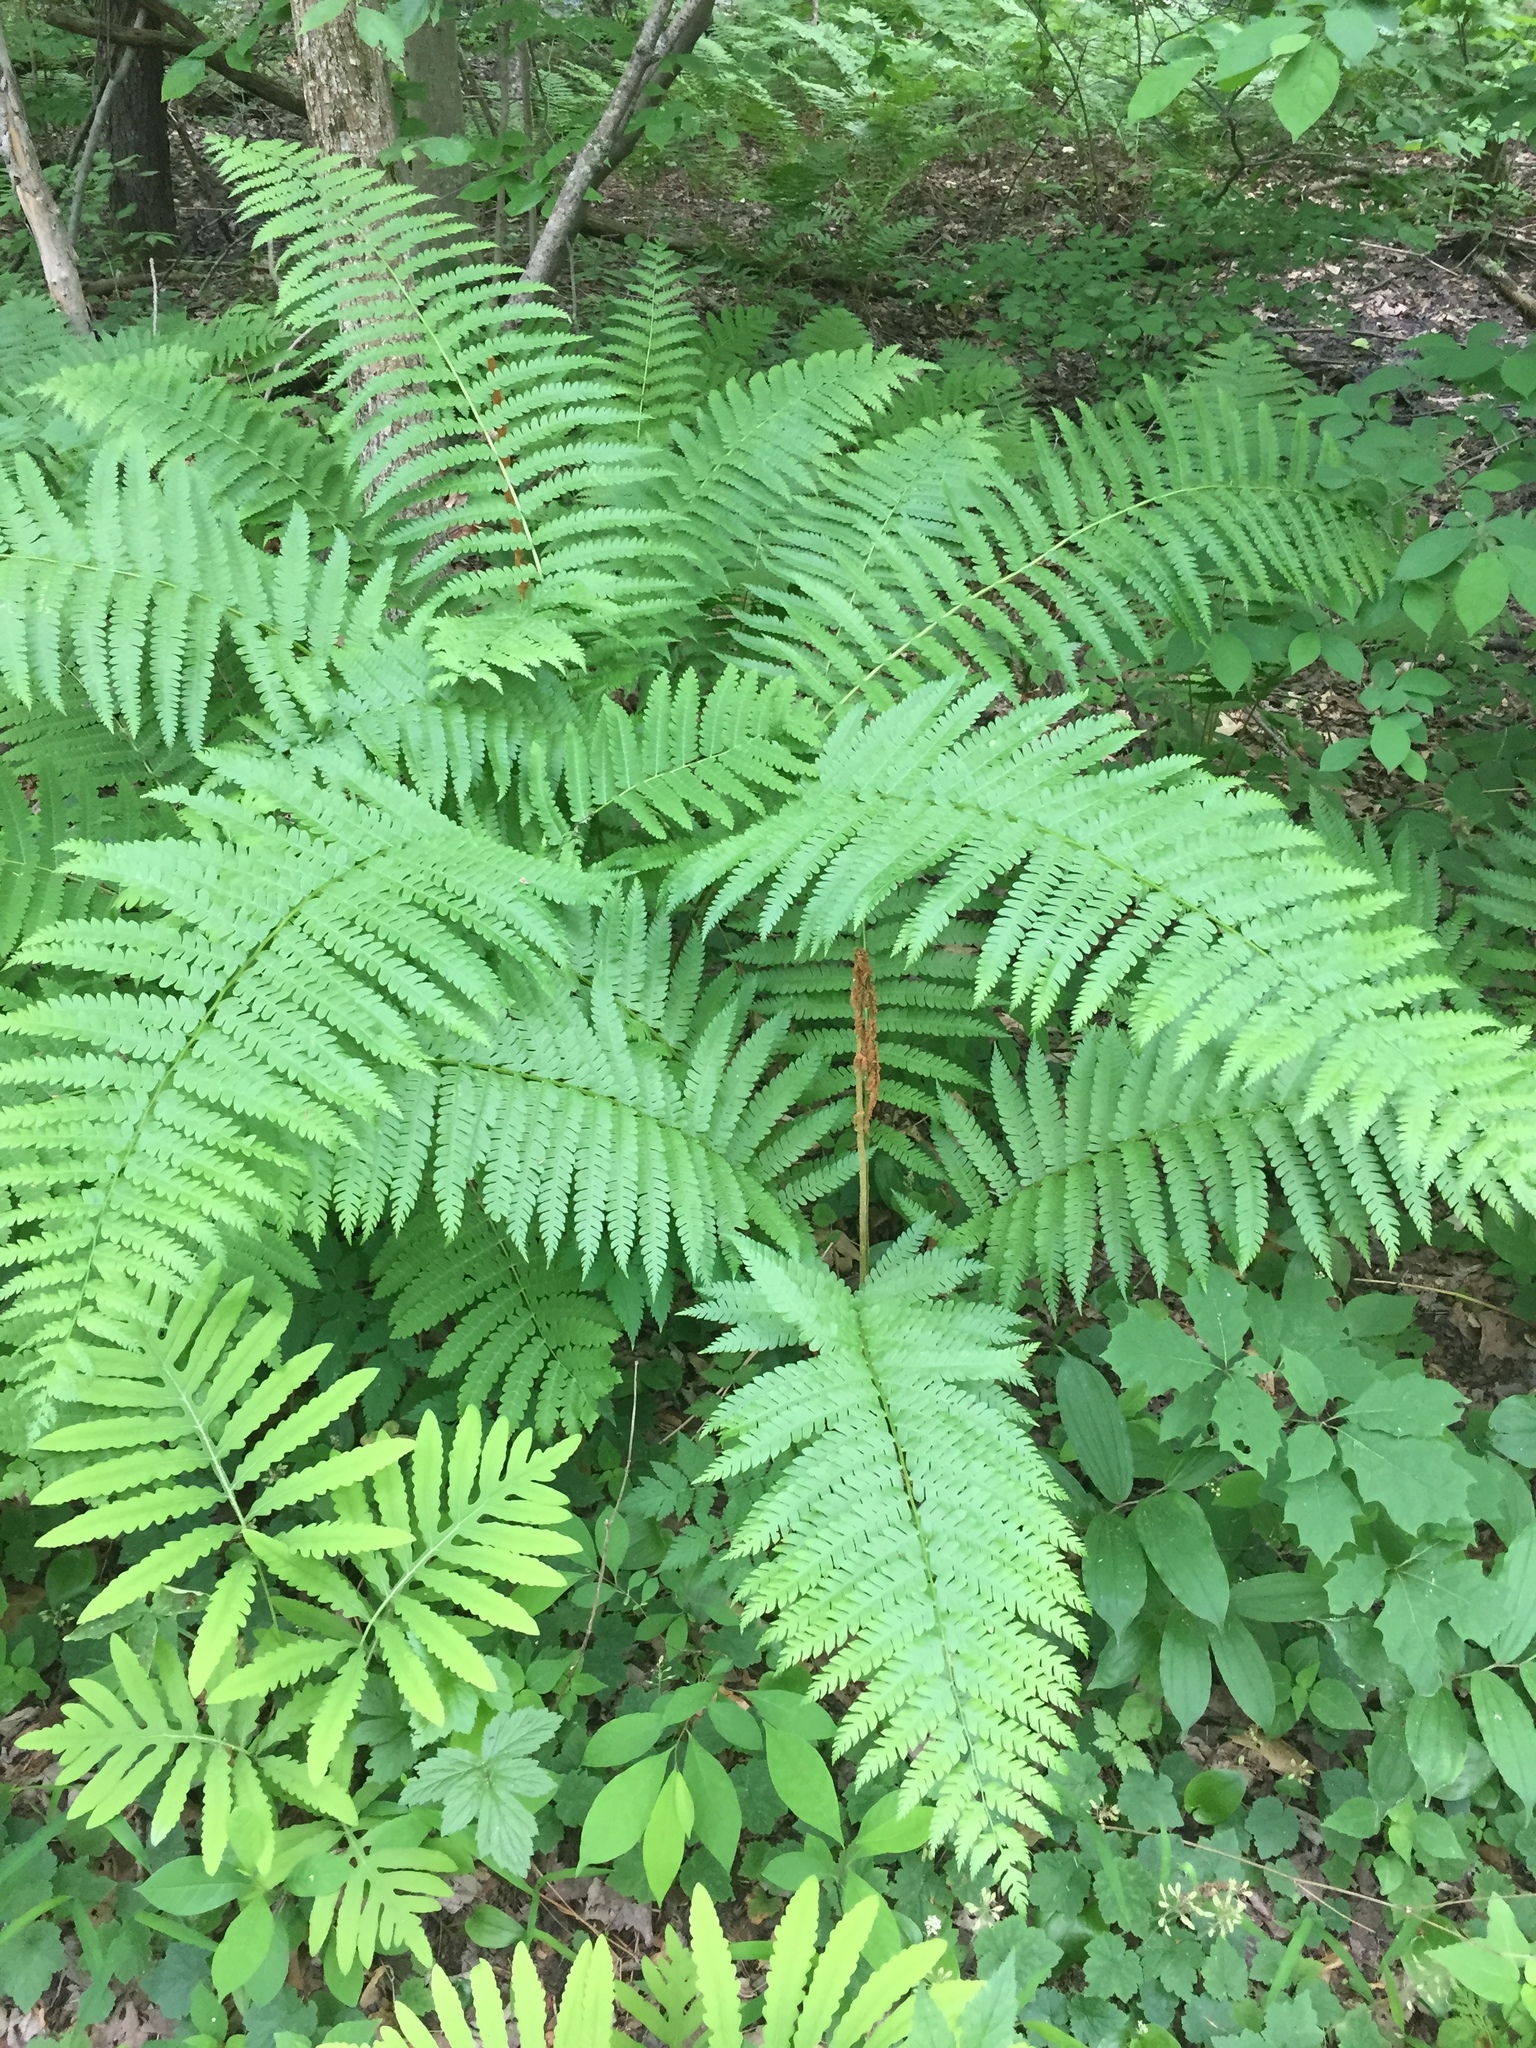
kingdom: Plantae
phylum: Tracheophyta
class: Polypodiopsida
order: Osmundales
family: Osmundaceae
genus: Osmundastrum
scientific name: Osmundastrum cinnamomeum
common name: Cinnamon fern
